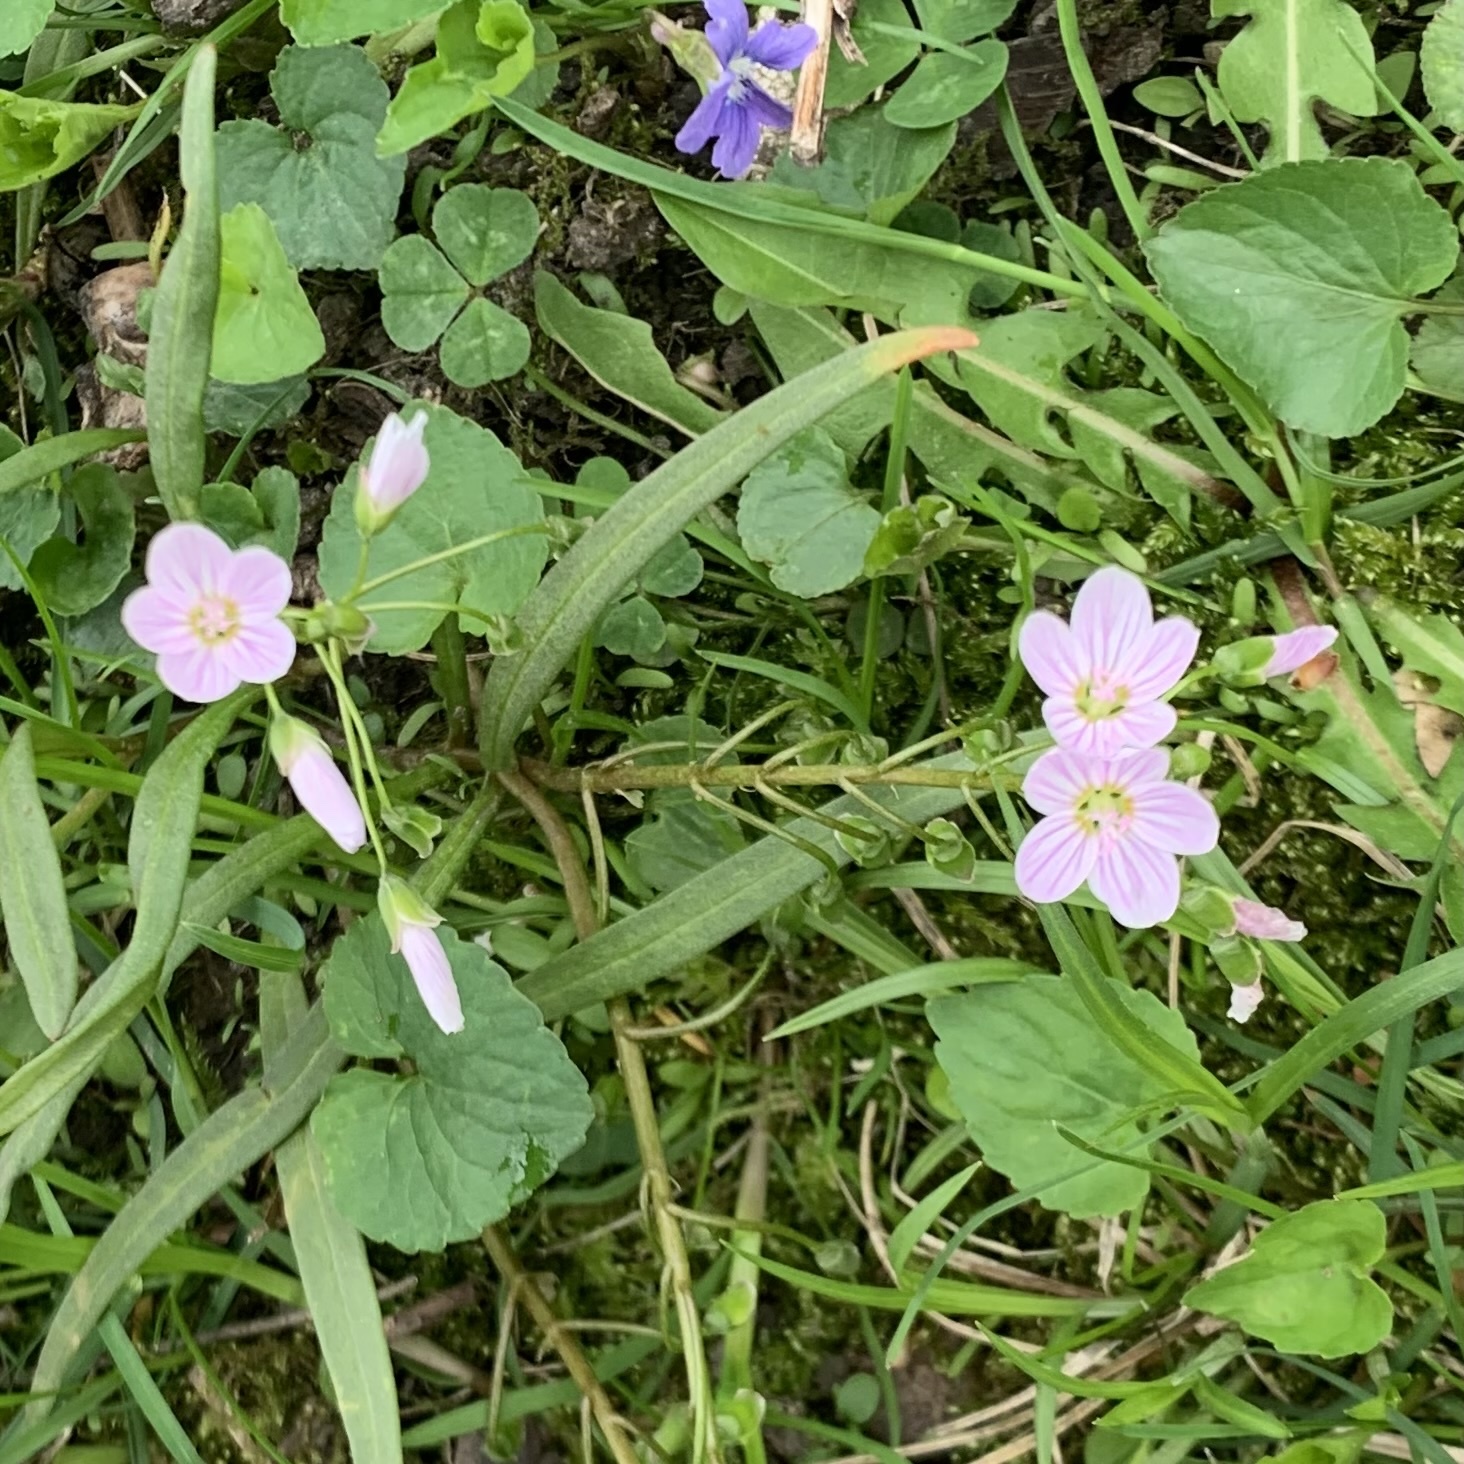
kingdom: Plantae
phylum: Tracheophyta
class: Magnoliopsida
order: Caryophyllales
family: Montiaceae
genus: Claytonia
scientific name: Claytonia virginica
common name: Virginia springbeauty
